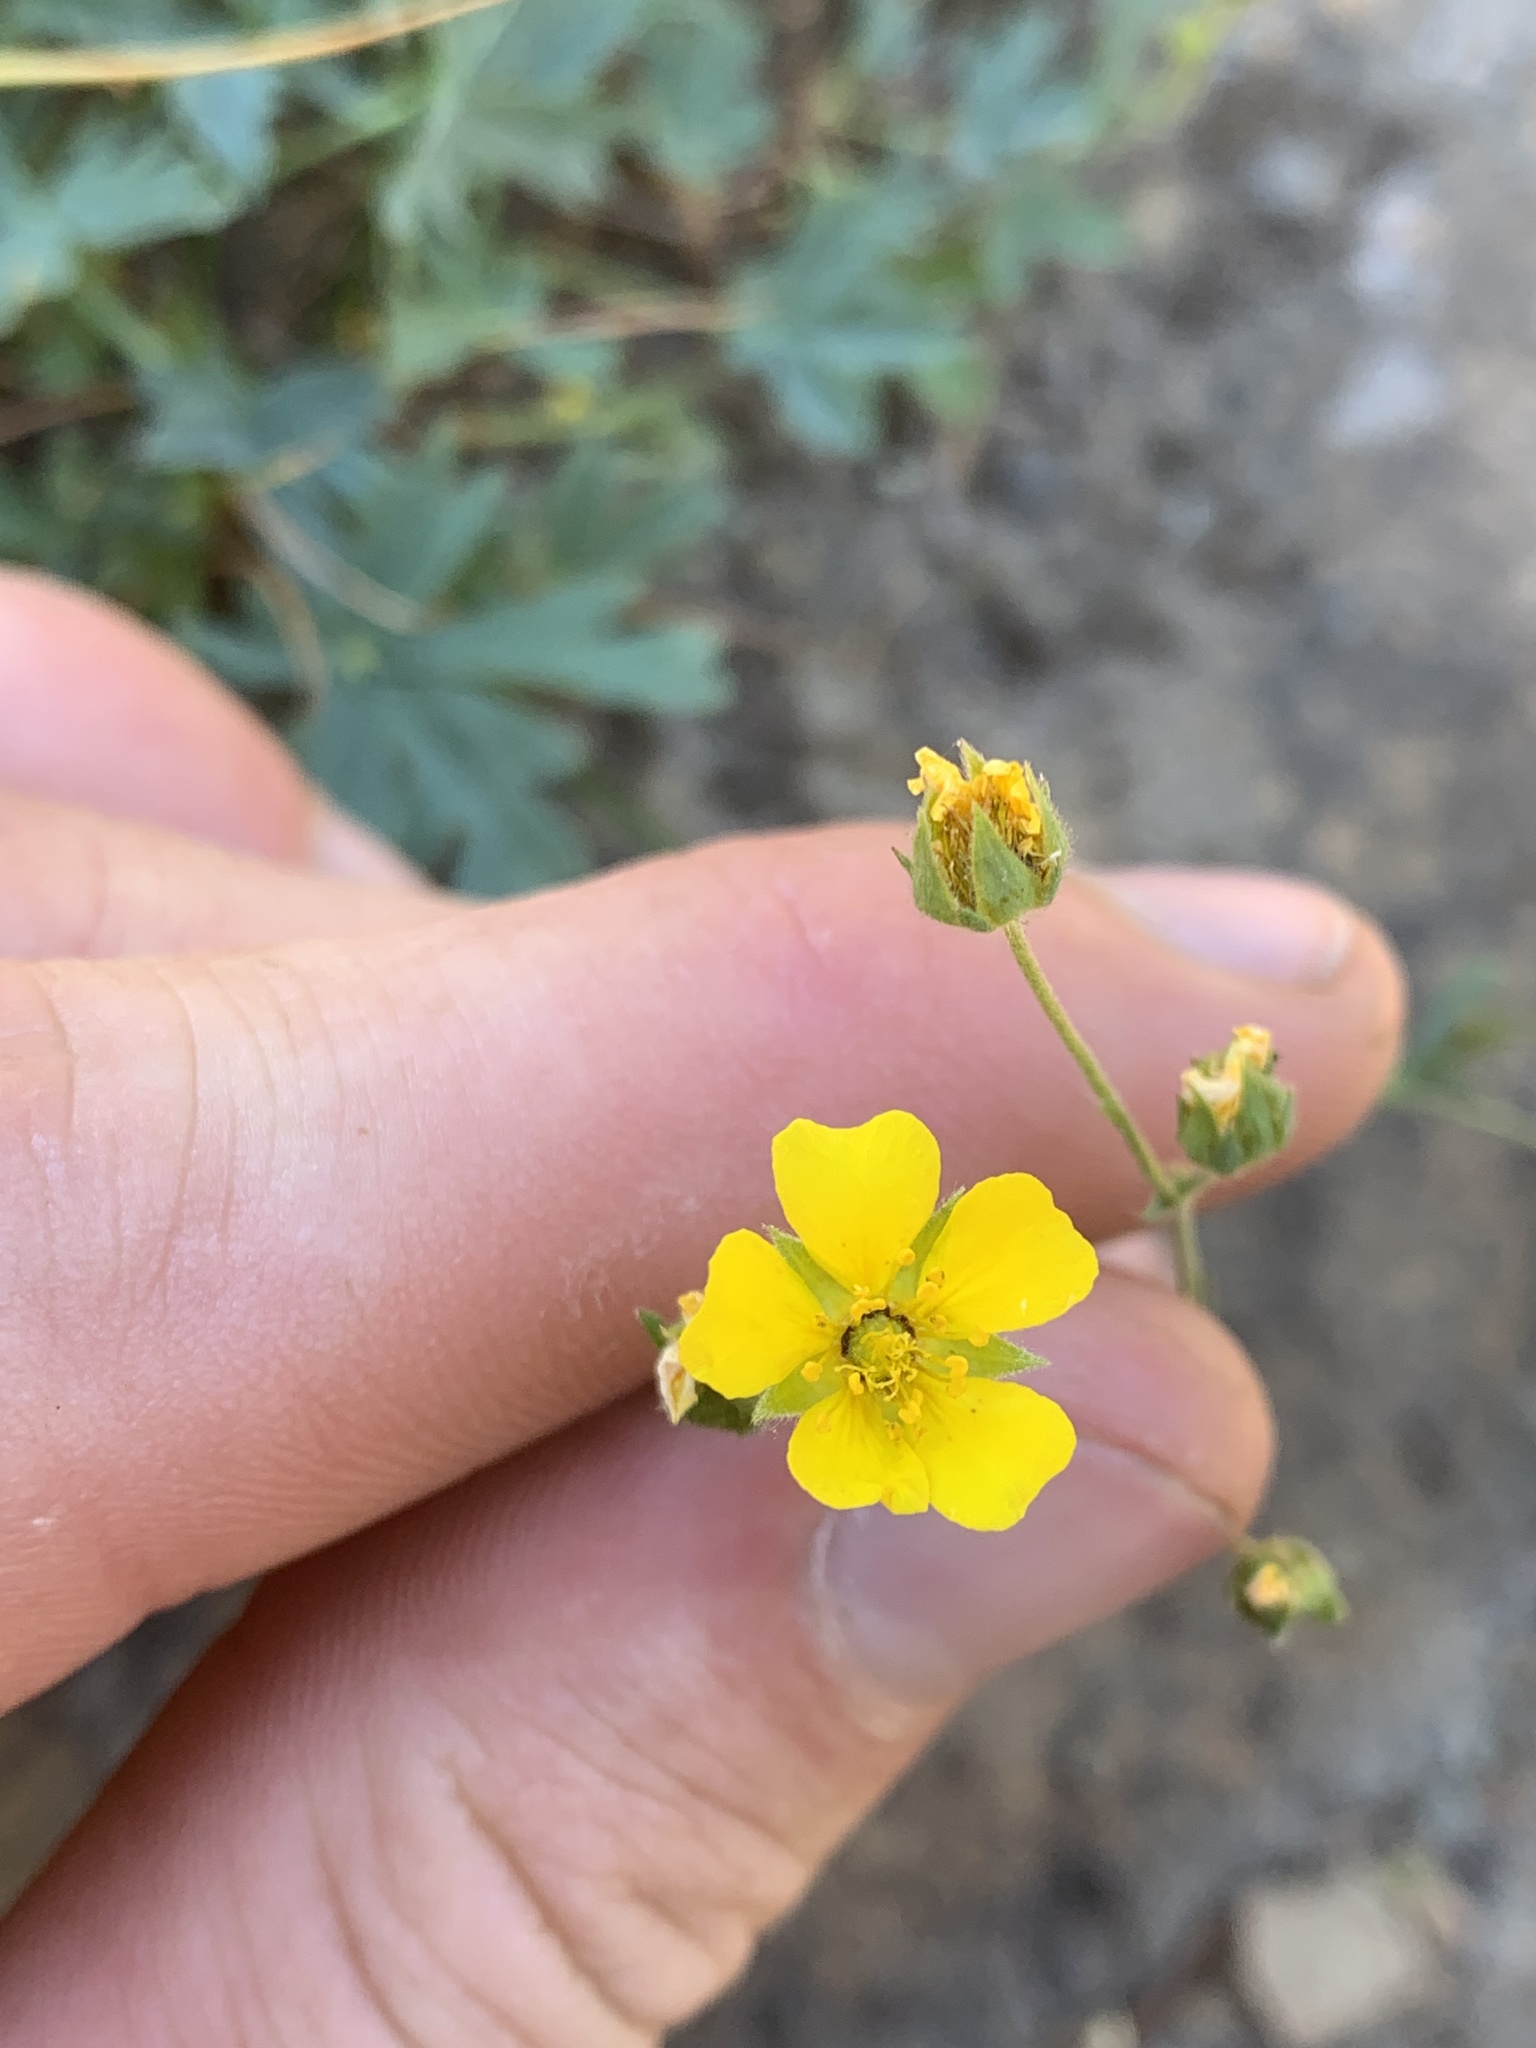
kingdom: Plantae
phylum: Tracheophyta
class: Magnoliopsida
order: Rosales
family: Rosaceae
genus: Potentilla
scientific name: Potentilla glaucophylla
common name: Blue-leaved cinquefoil
